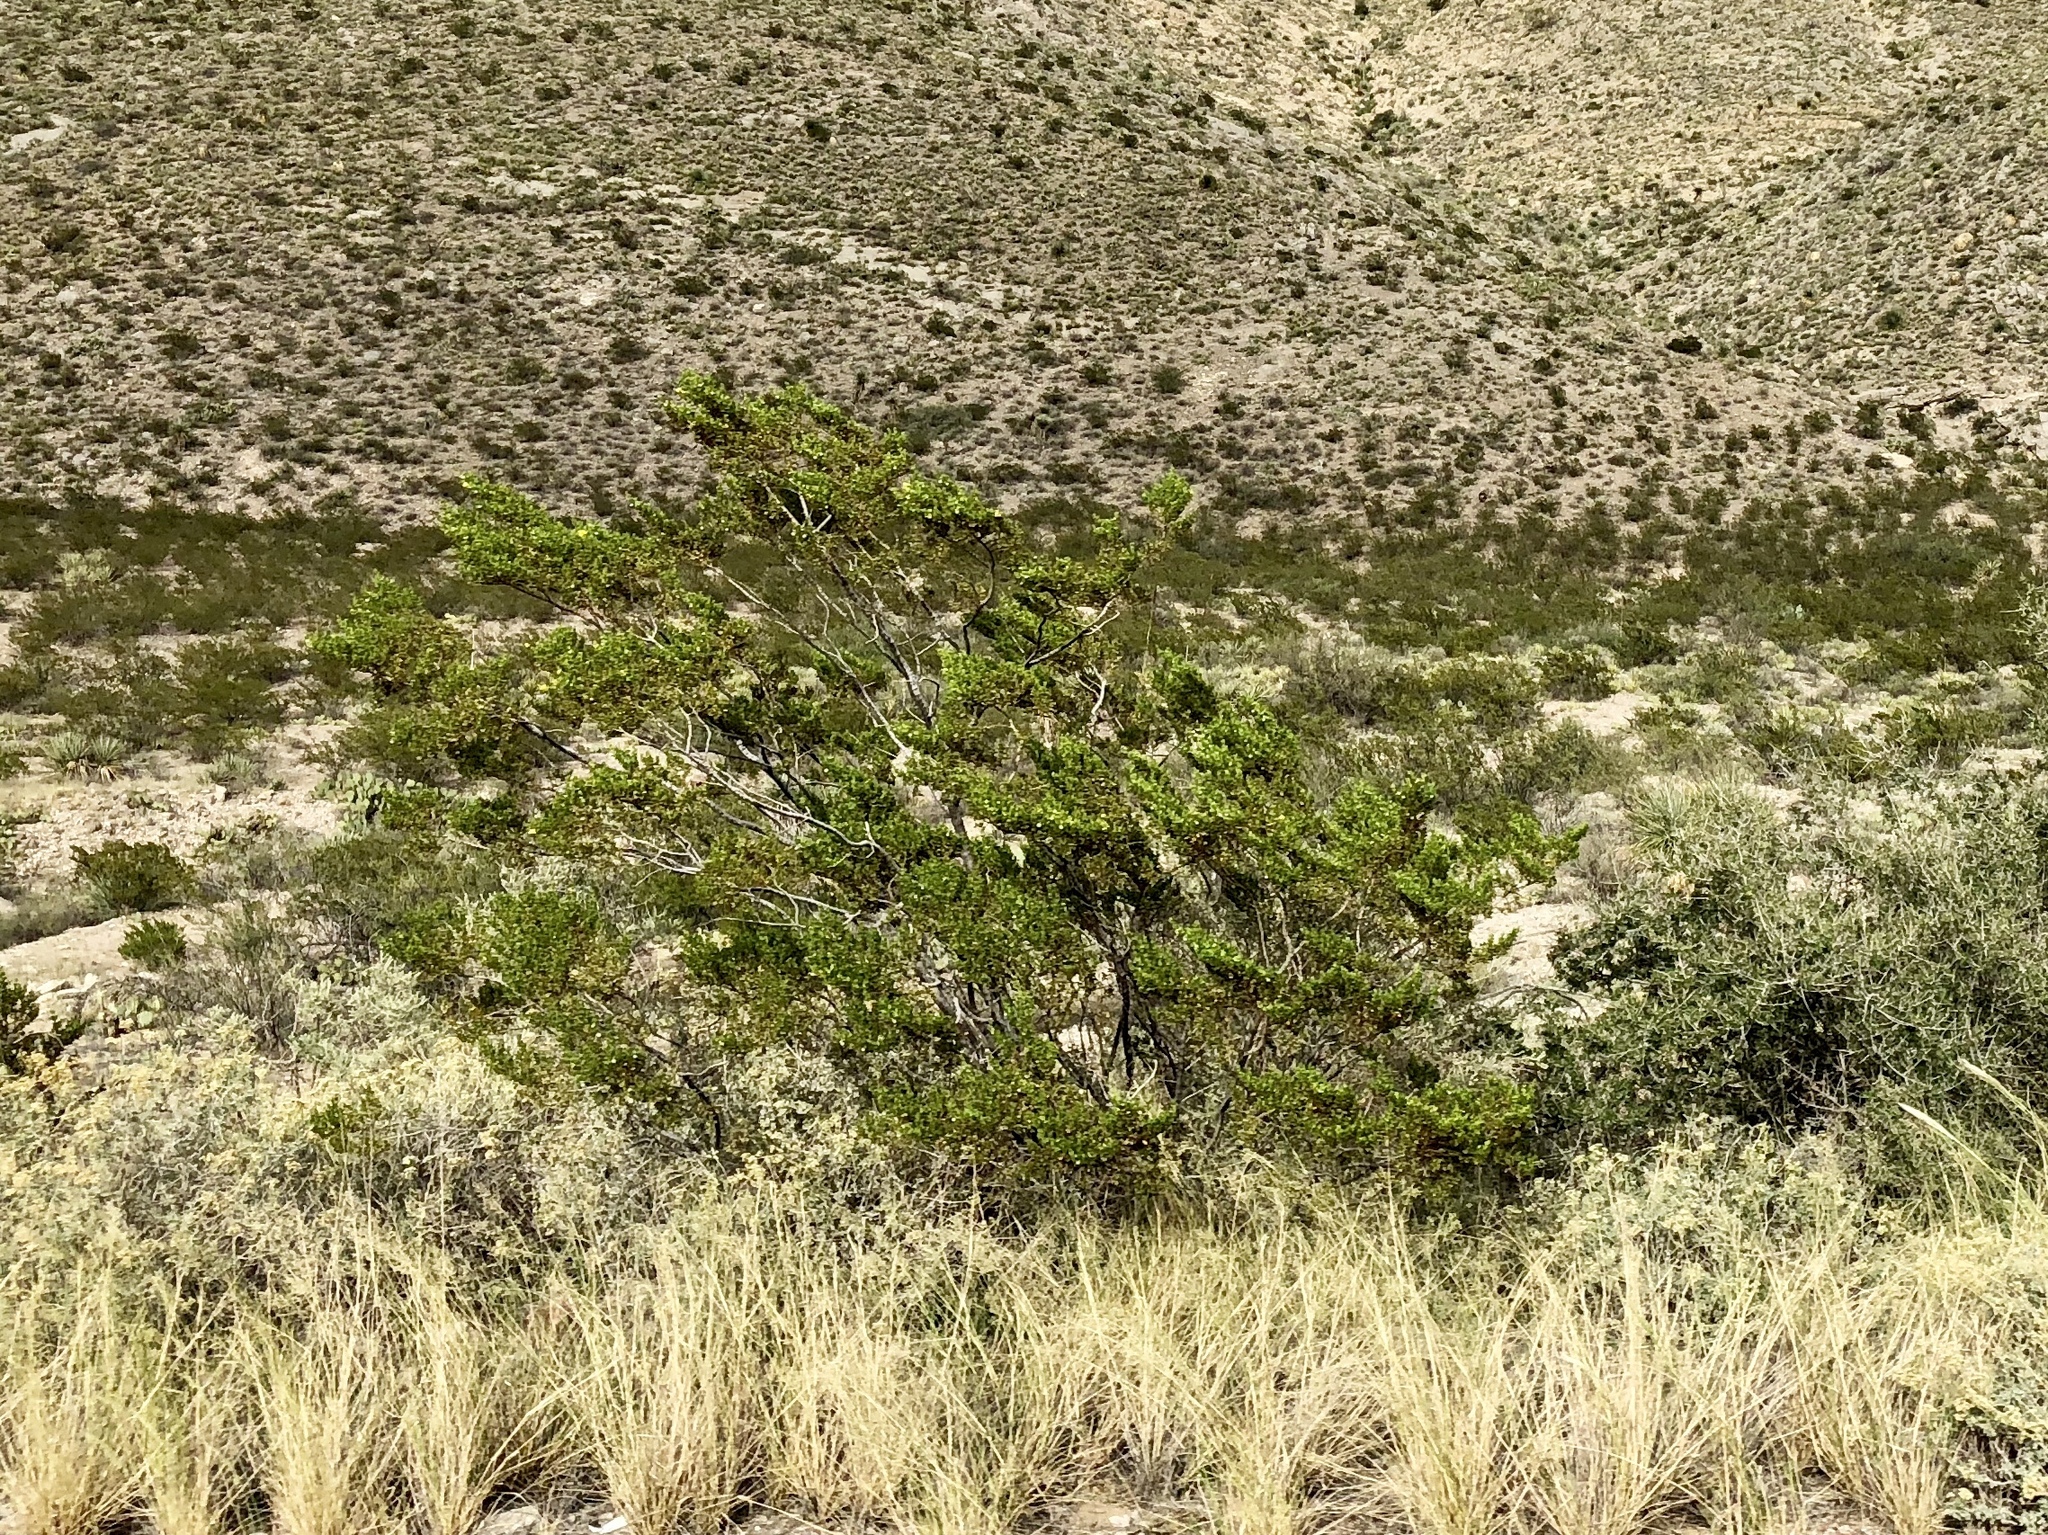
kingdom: Plantae
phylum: Tracheophyta
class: Magnoliopsida
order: Zygophyllales
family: Zygophyllaceae
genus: Larrea
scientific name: Larrea tridentata
